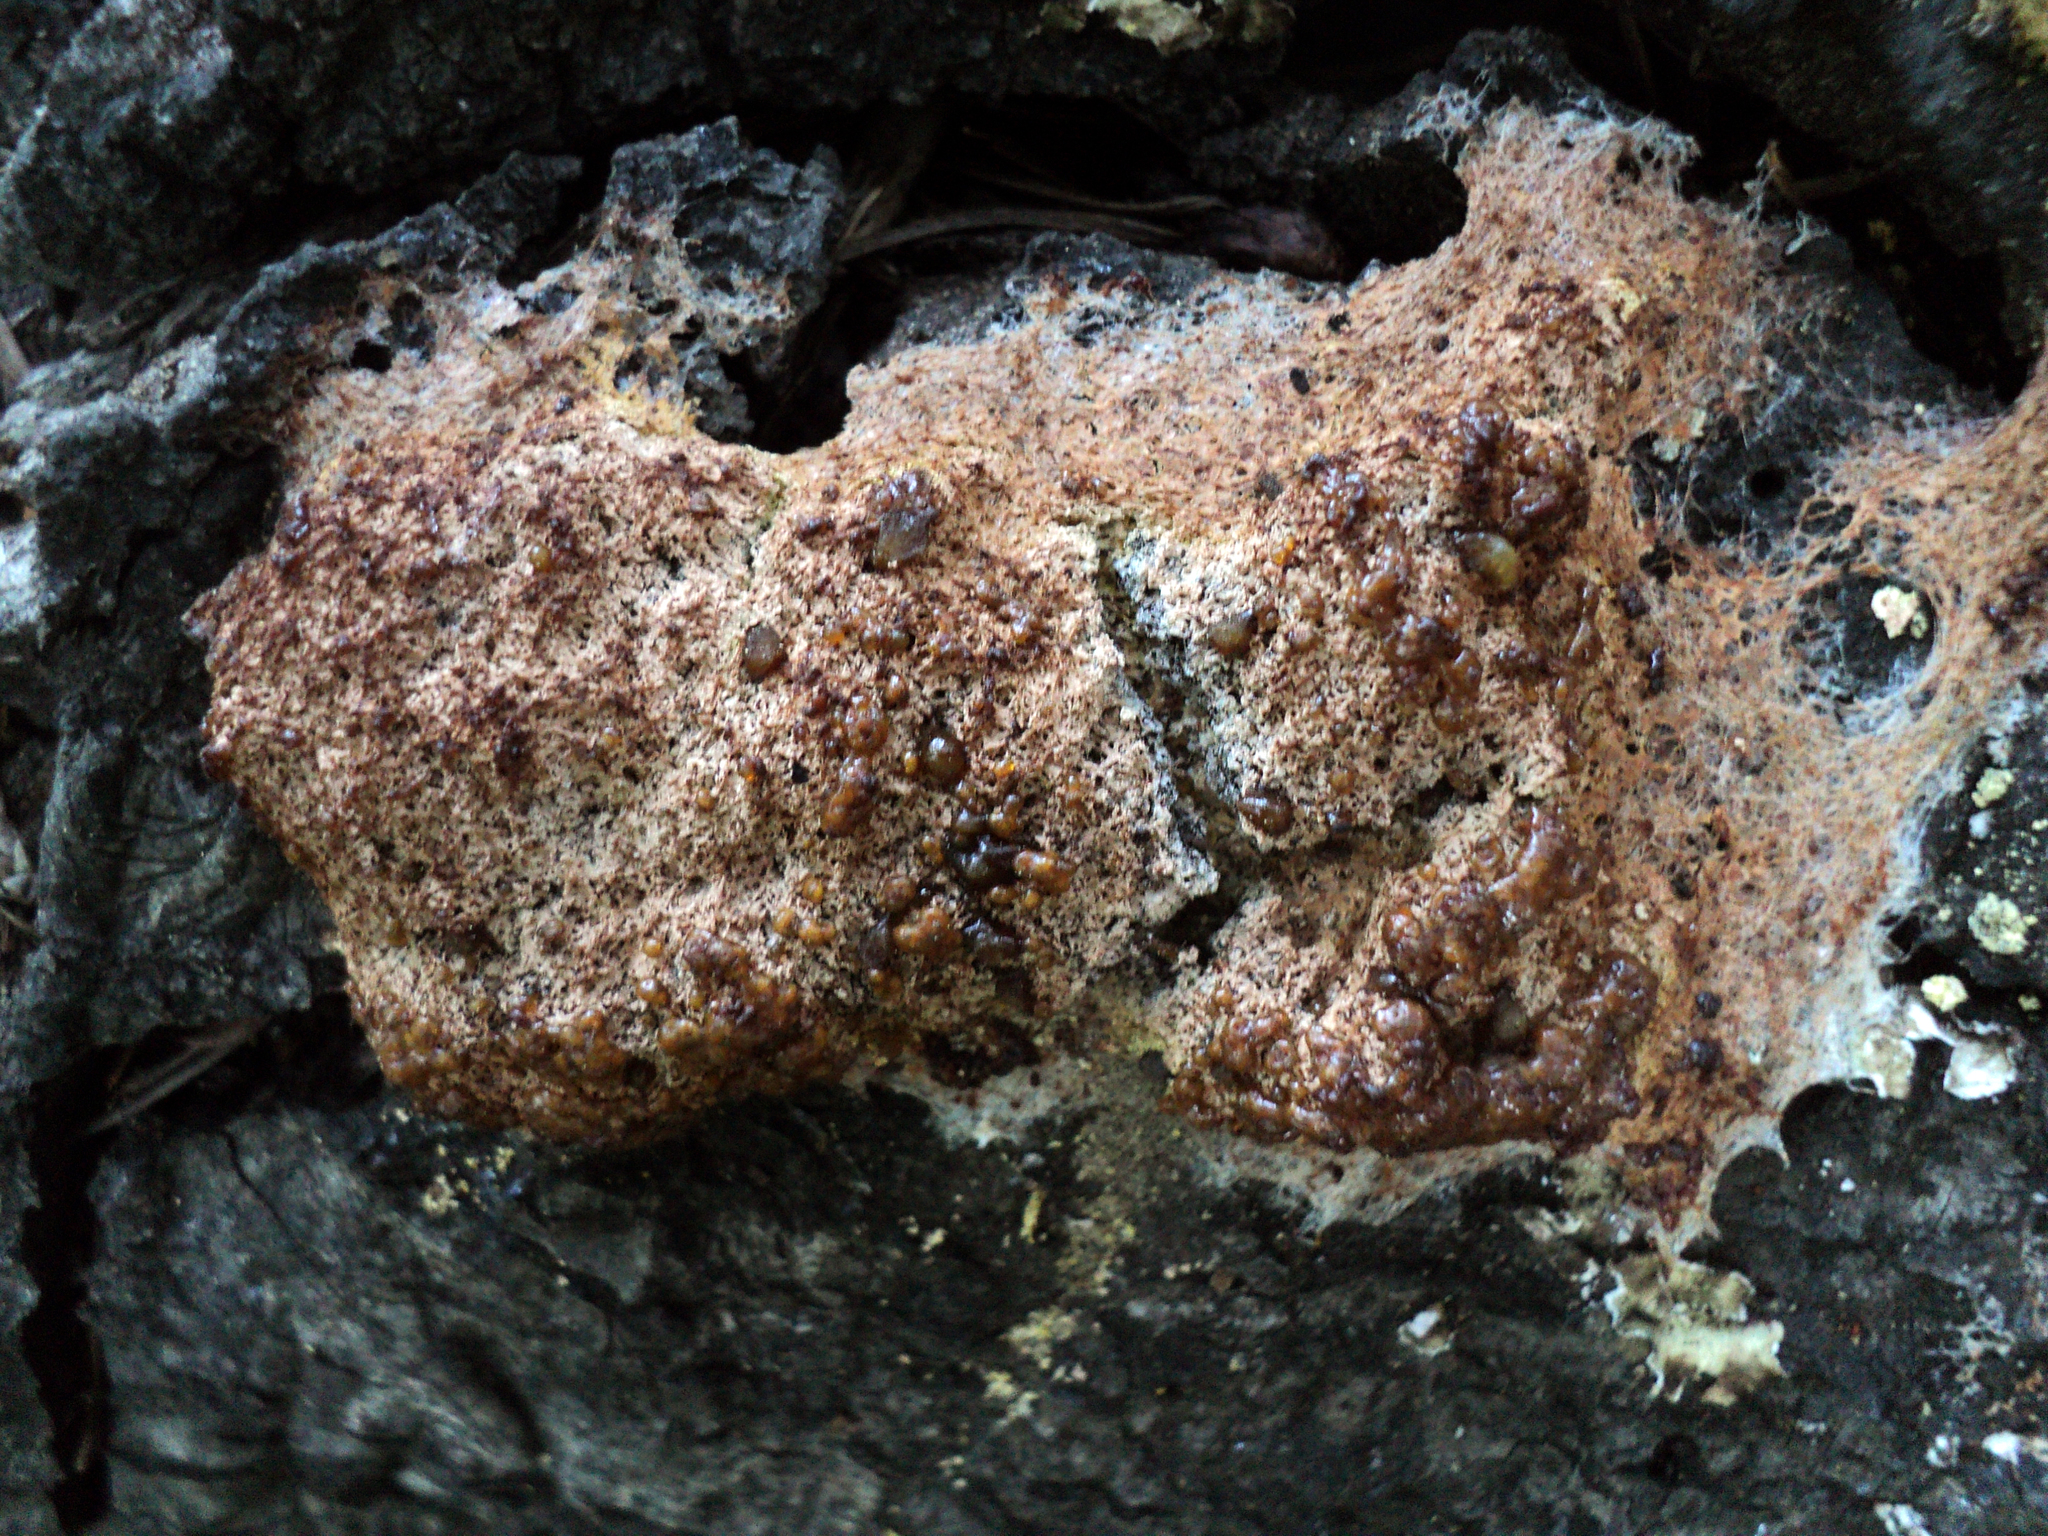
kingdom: Protozoa
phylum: Mycetozoa
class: Myxomycetes
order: Physarales
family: Physaraceae
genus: Fuligo
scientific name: Fuligo septica
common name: Dog vomit slime mold
